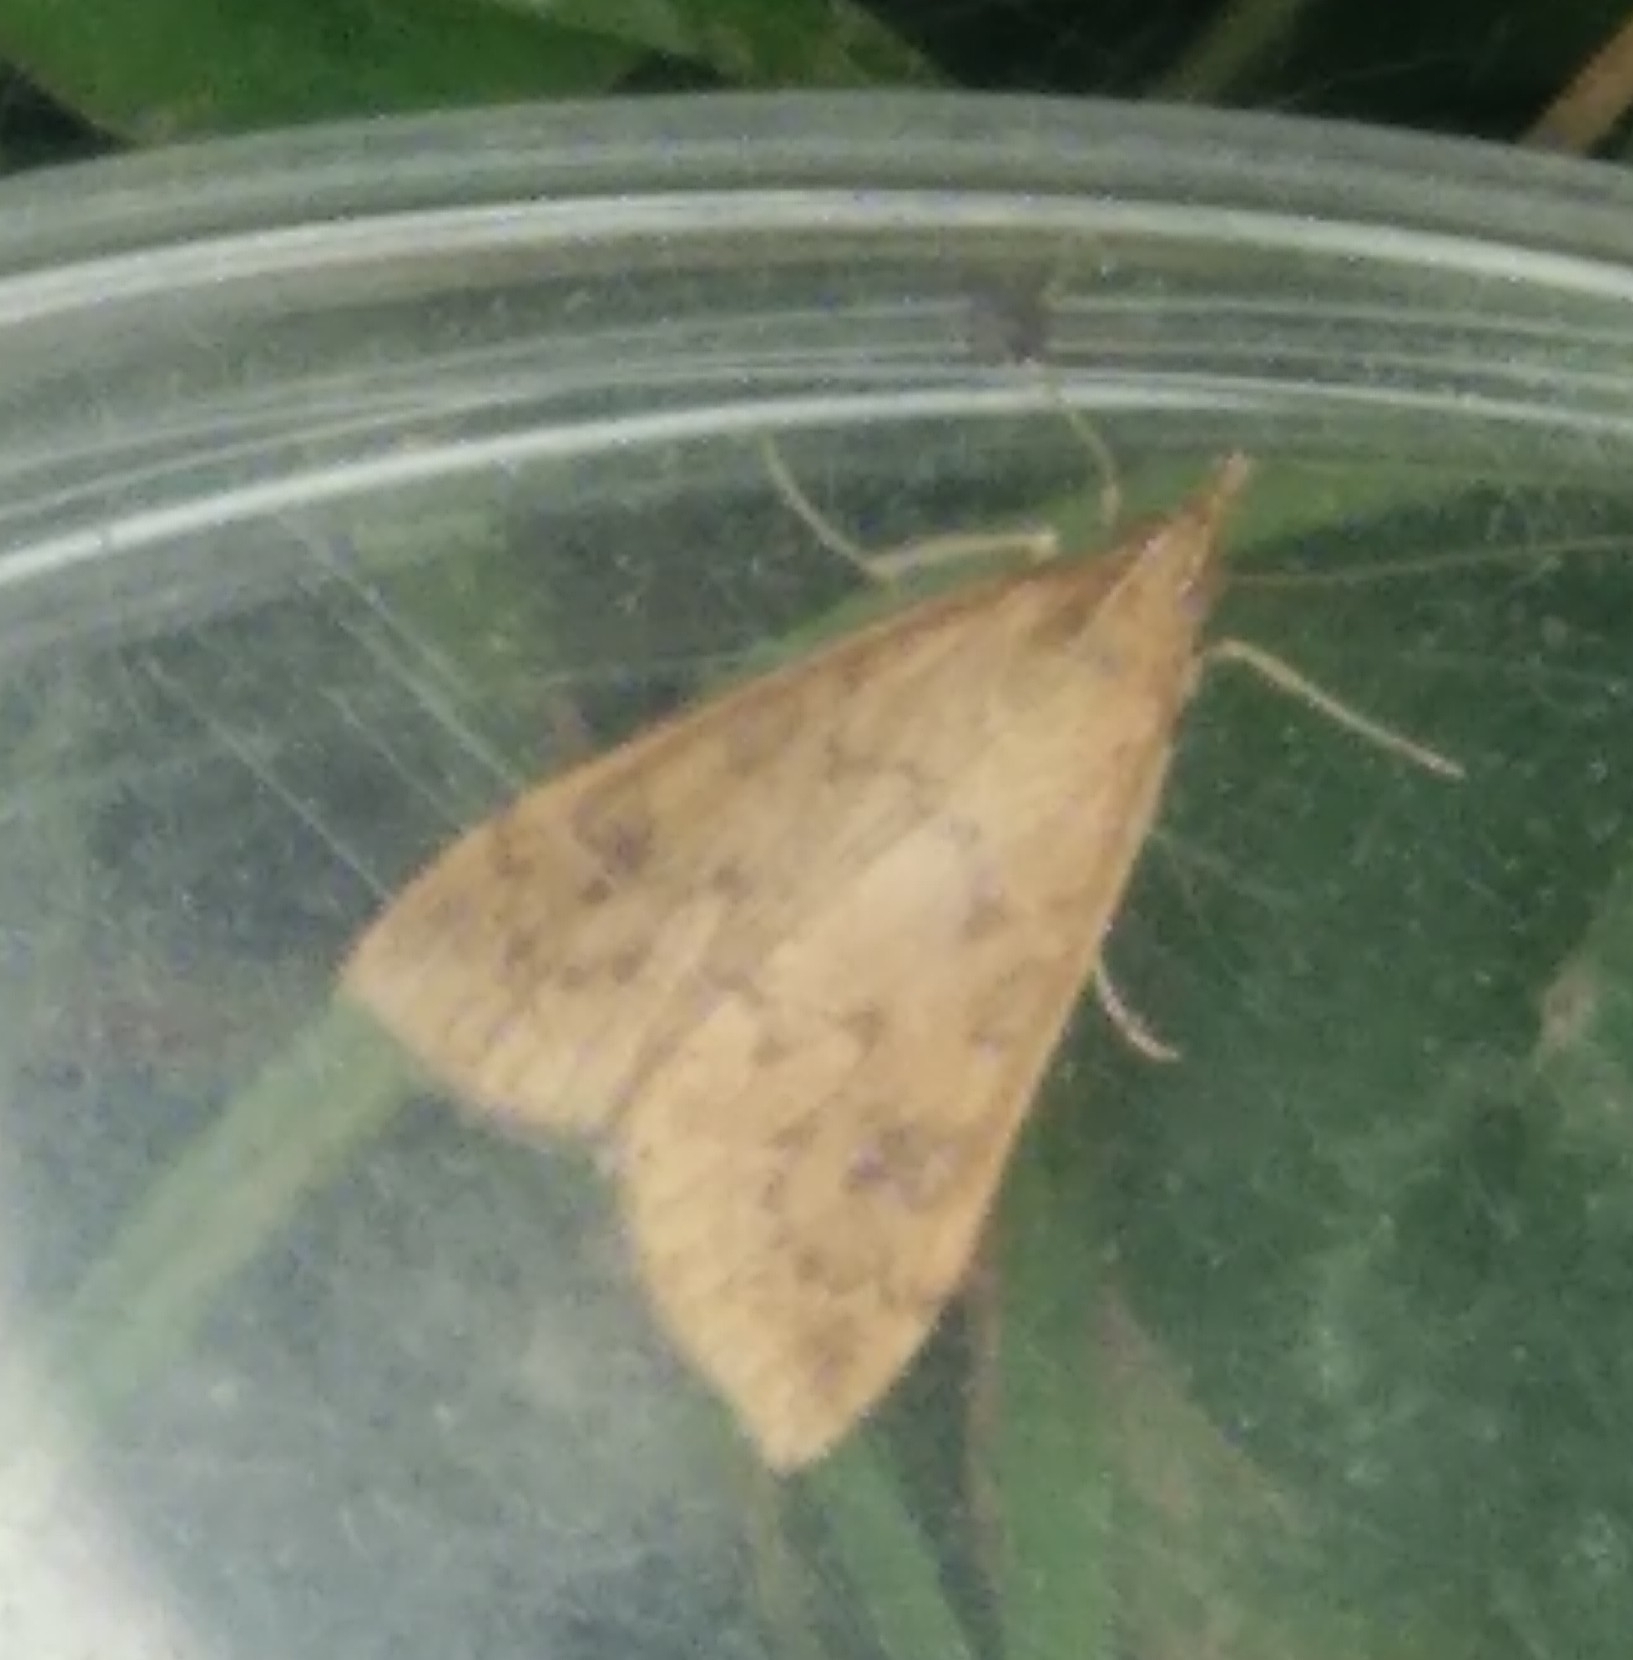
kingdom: Animalia
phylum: Arthropoda
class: Insecta
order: Lepidoptera
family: Crambidae
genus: Udea
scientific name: Udea ferrugalis
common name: Rusty dot
